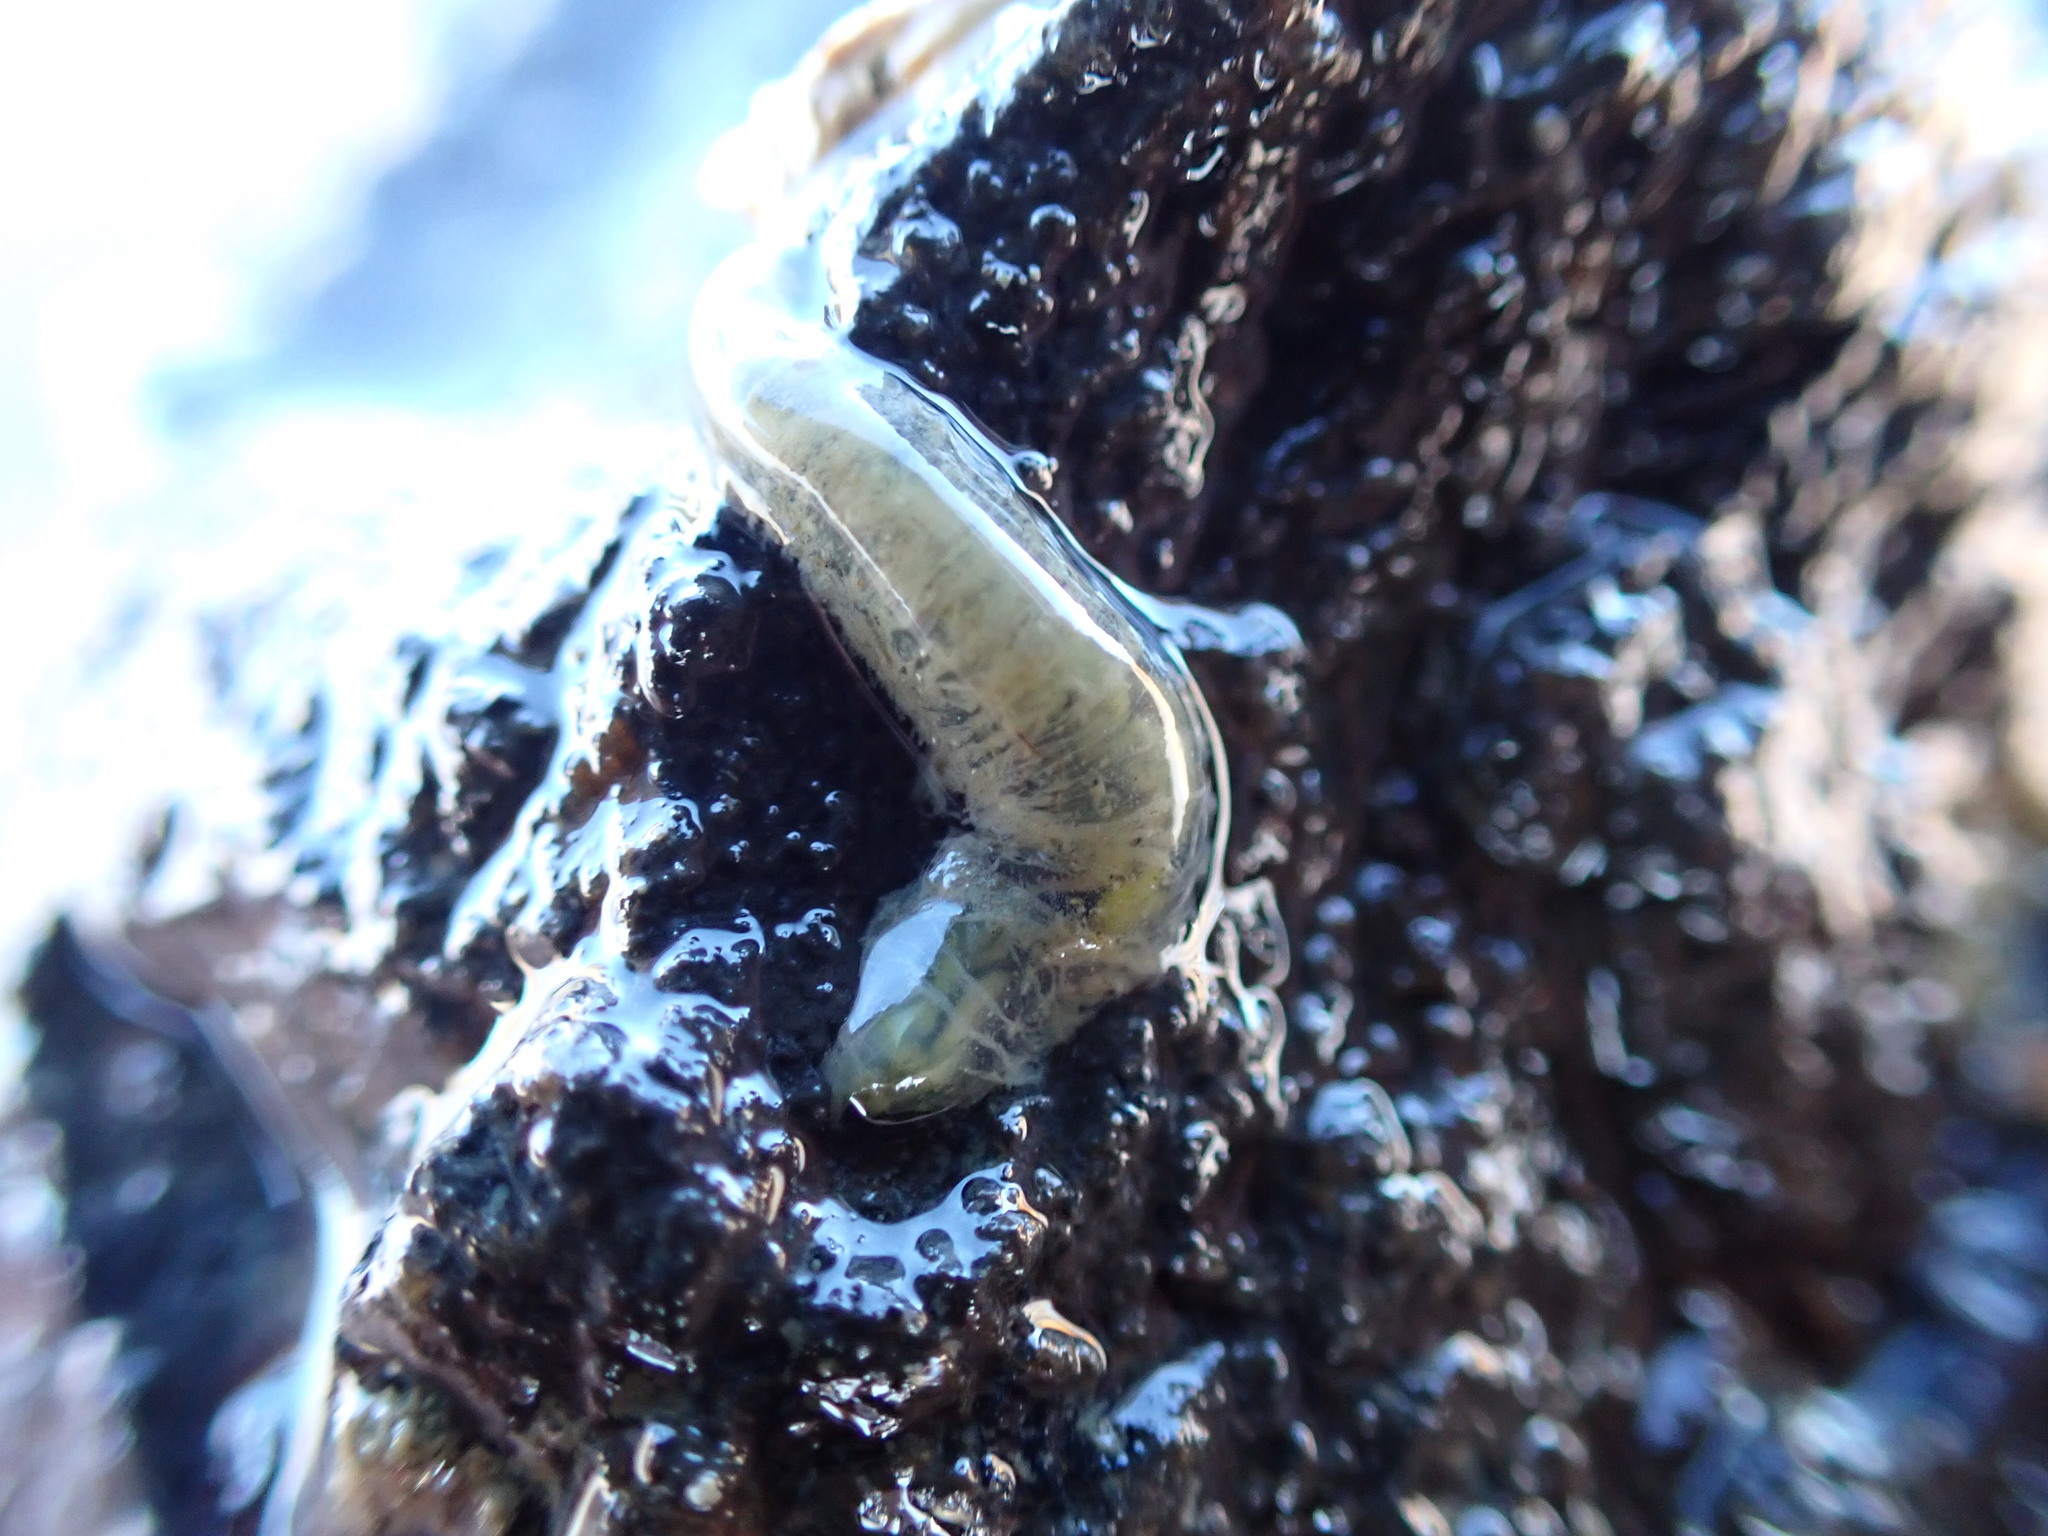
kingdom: Animalia
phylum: Annelida
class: Polychaeta
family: Flabelligeridae
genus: Flabelligera
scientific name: Flabelligera bicolor
